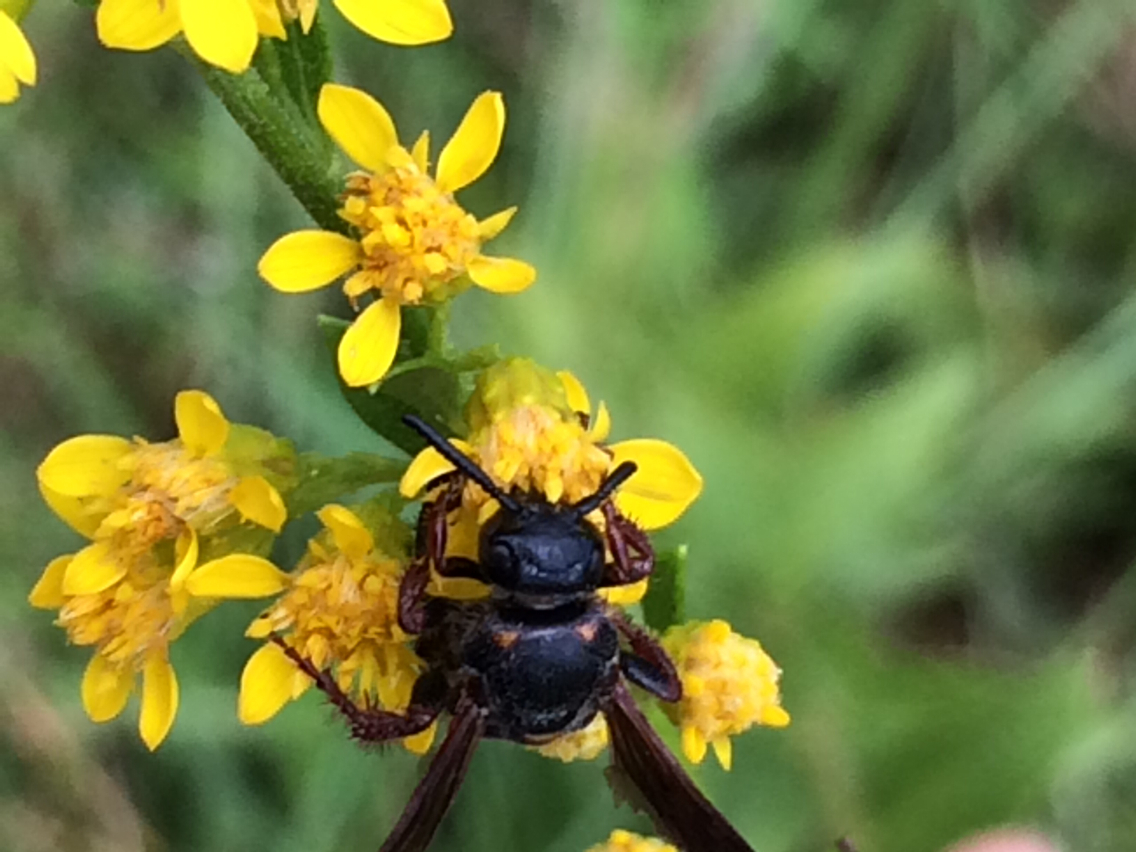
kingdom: Animalia
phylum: Arthropoda
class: Insecta
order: Hymenoptera
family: Scoliidae
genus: Scolia
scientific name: Scolia nobilitata
